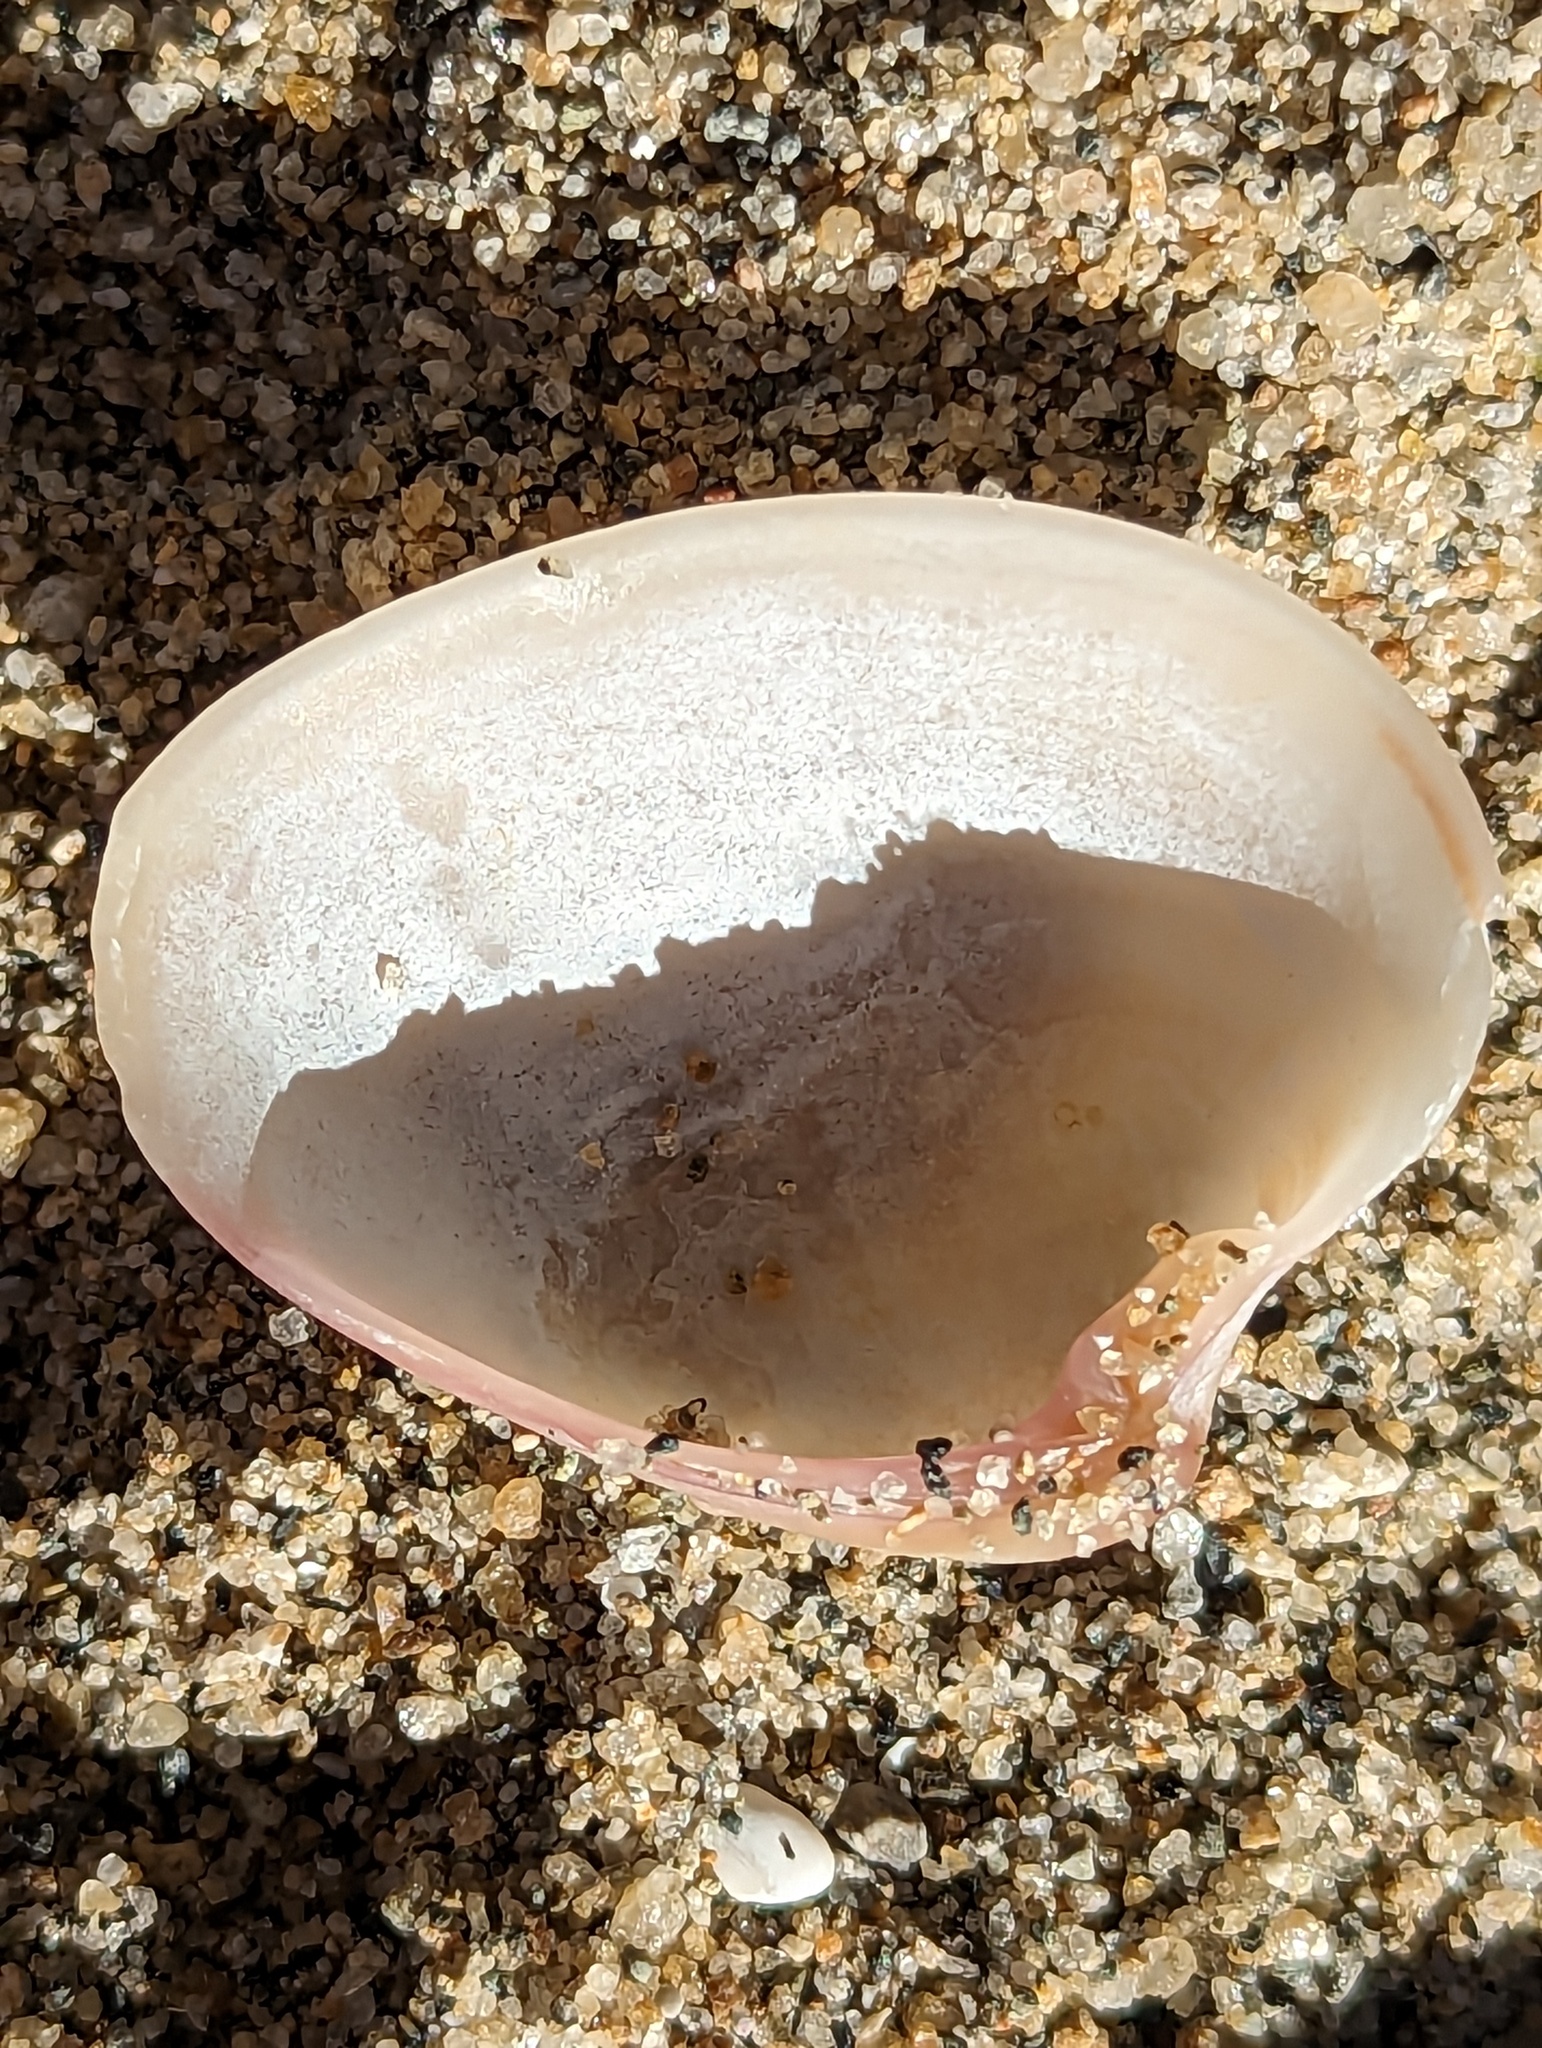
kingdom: Animalia
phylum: Mollusca
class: Bivalvia
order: Venerida
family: Veneridae
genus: Hysteroconcha
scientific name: Hysteroconcha dione
